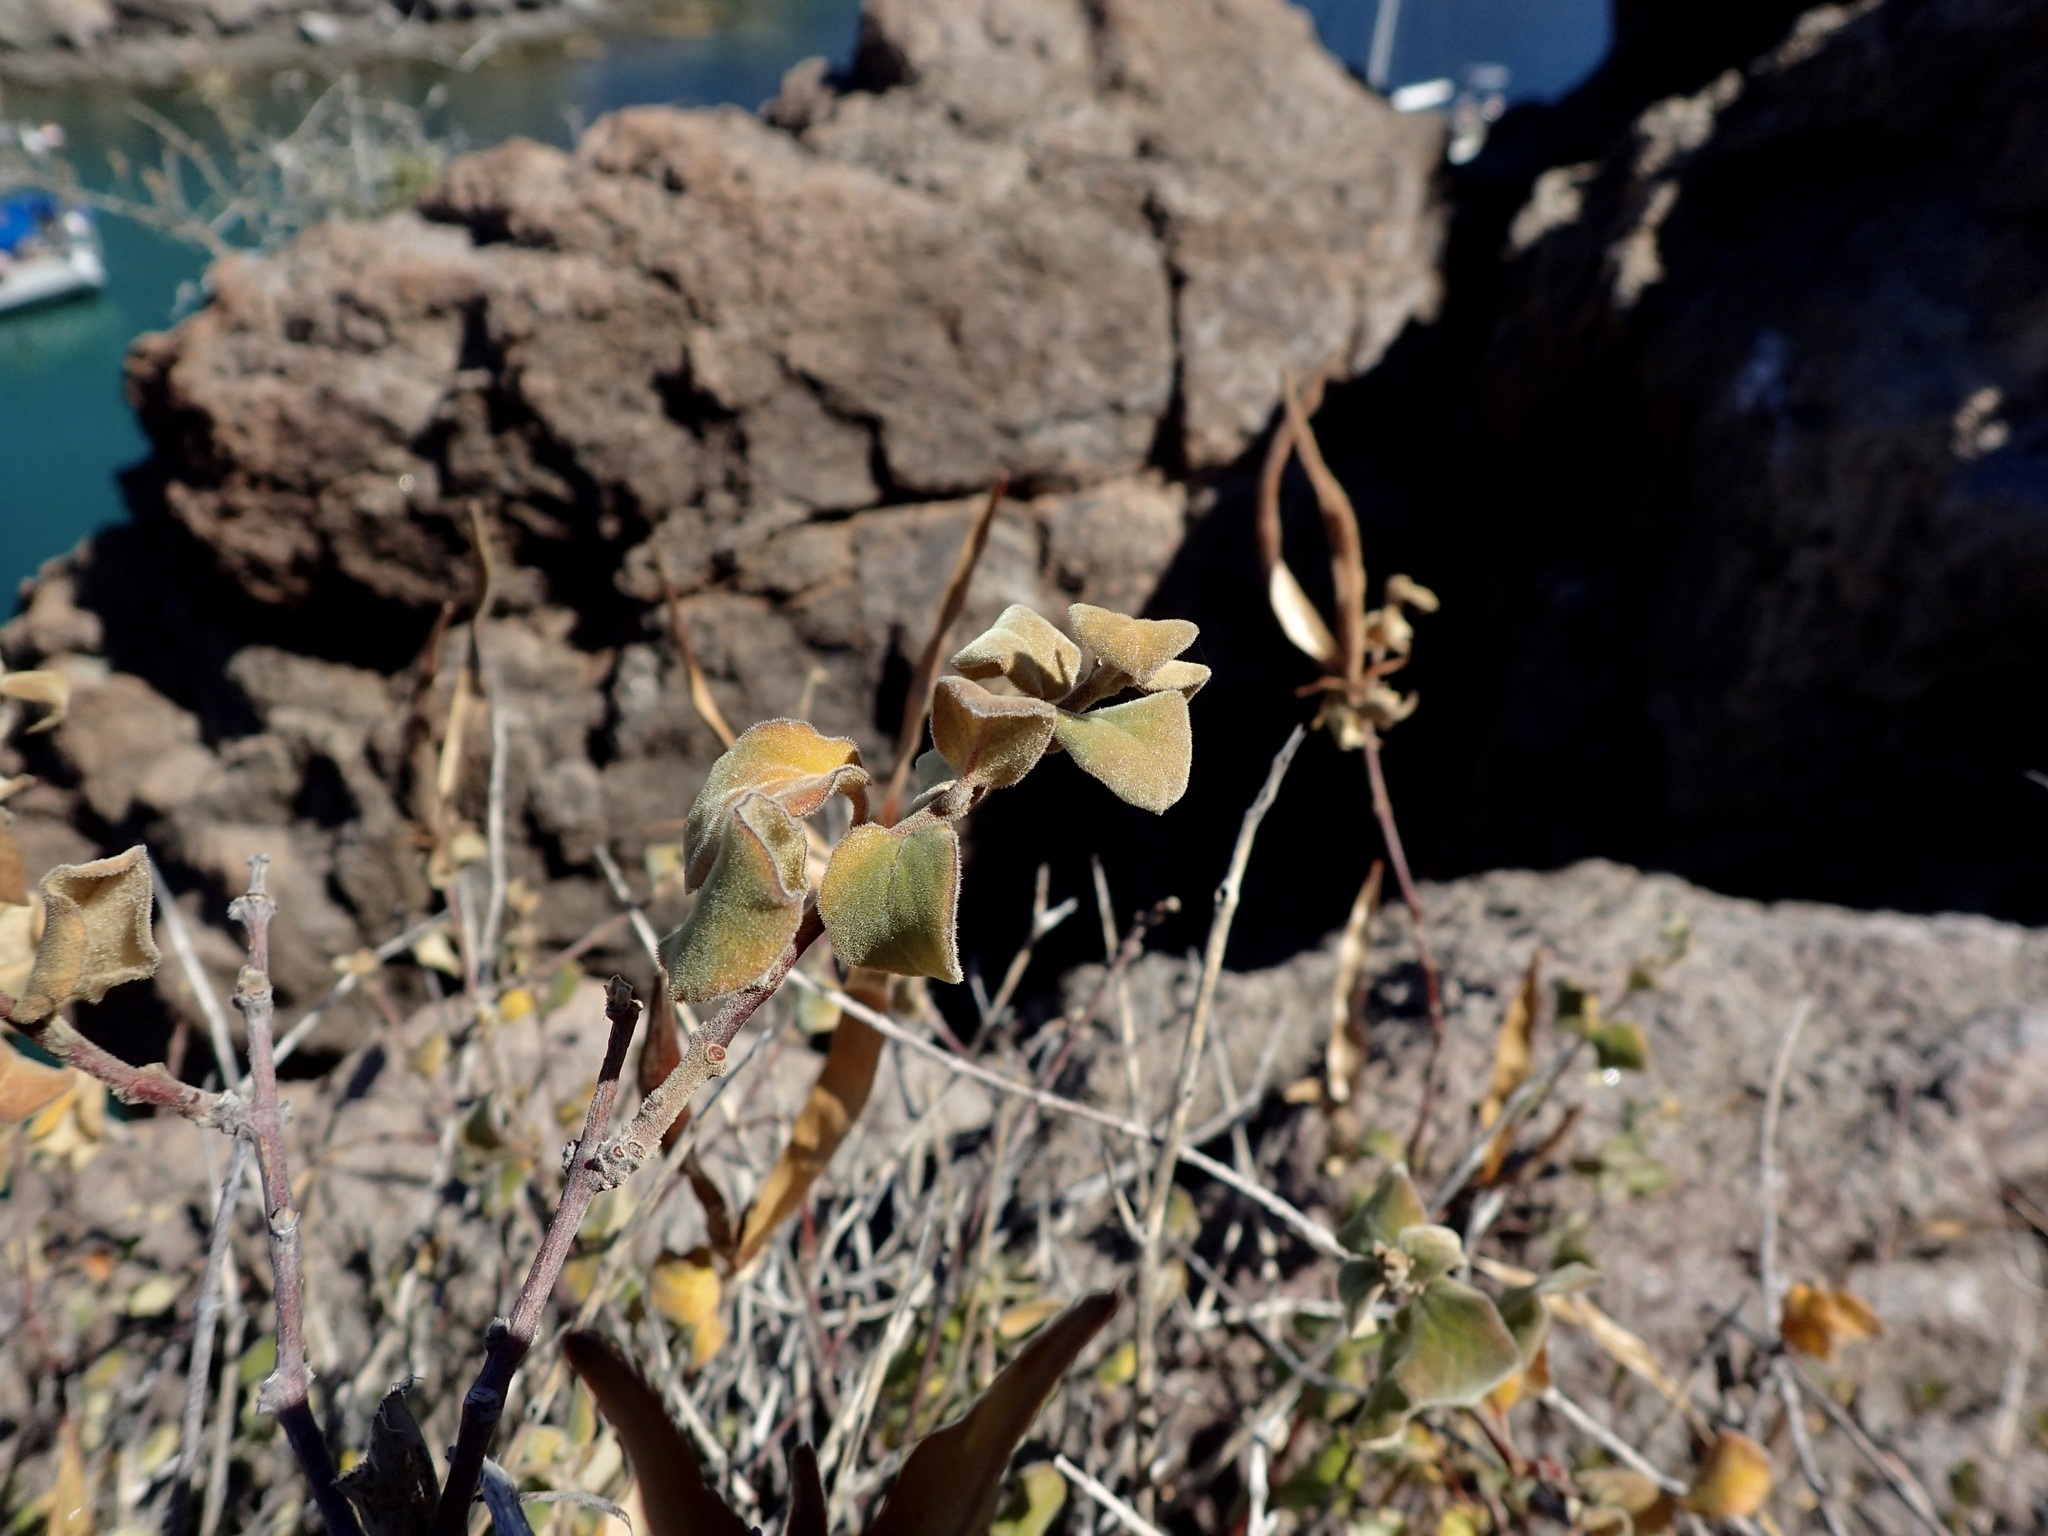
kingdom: Plantae
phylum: Tracheophyta
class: Magnoliopsida
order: Gentianales
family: Apocynaceae
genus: Mandevilla
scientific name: Mandevilla hesperia
